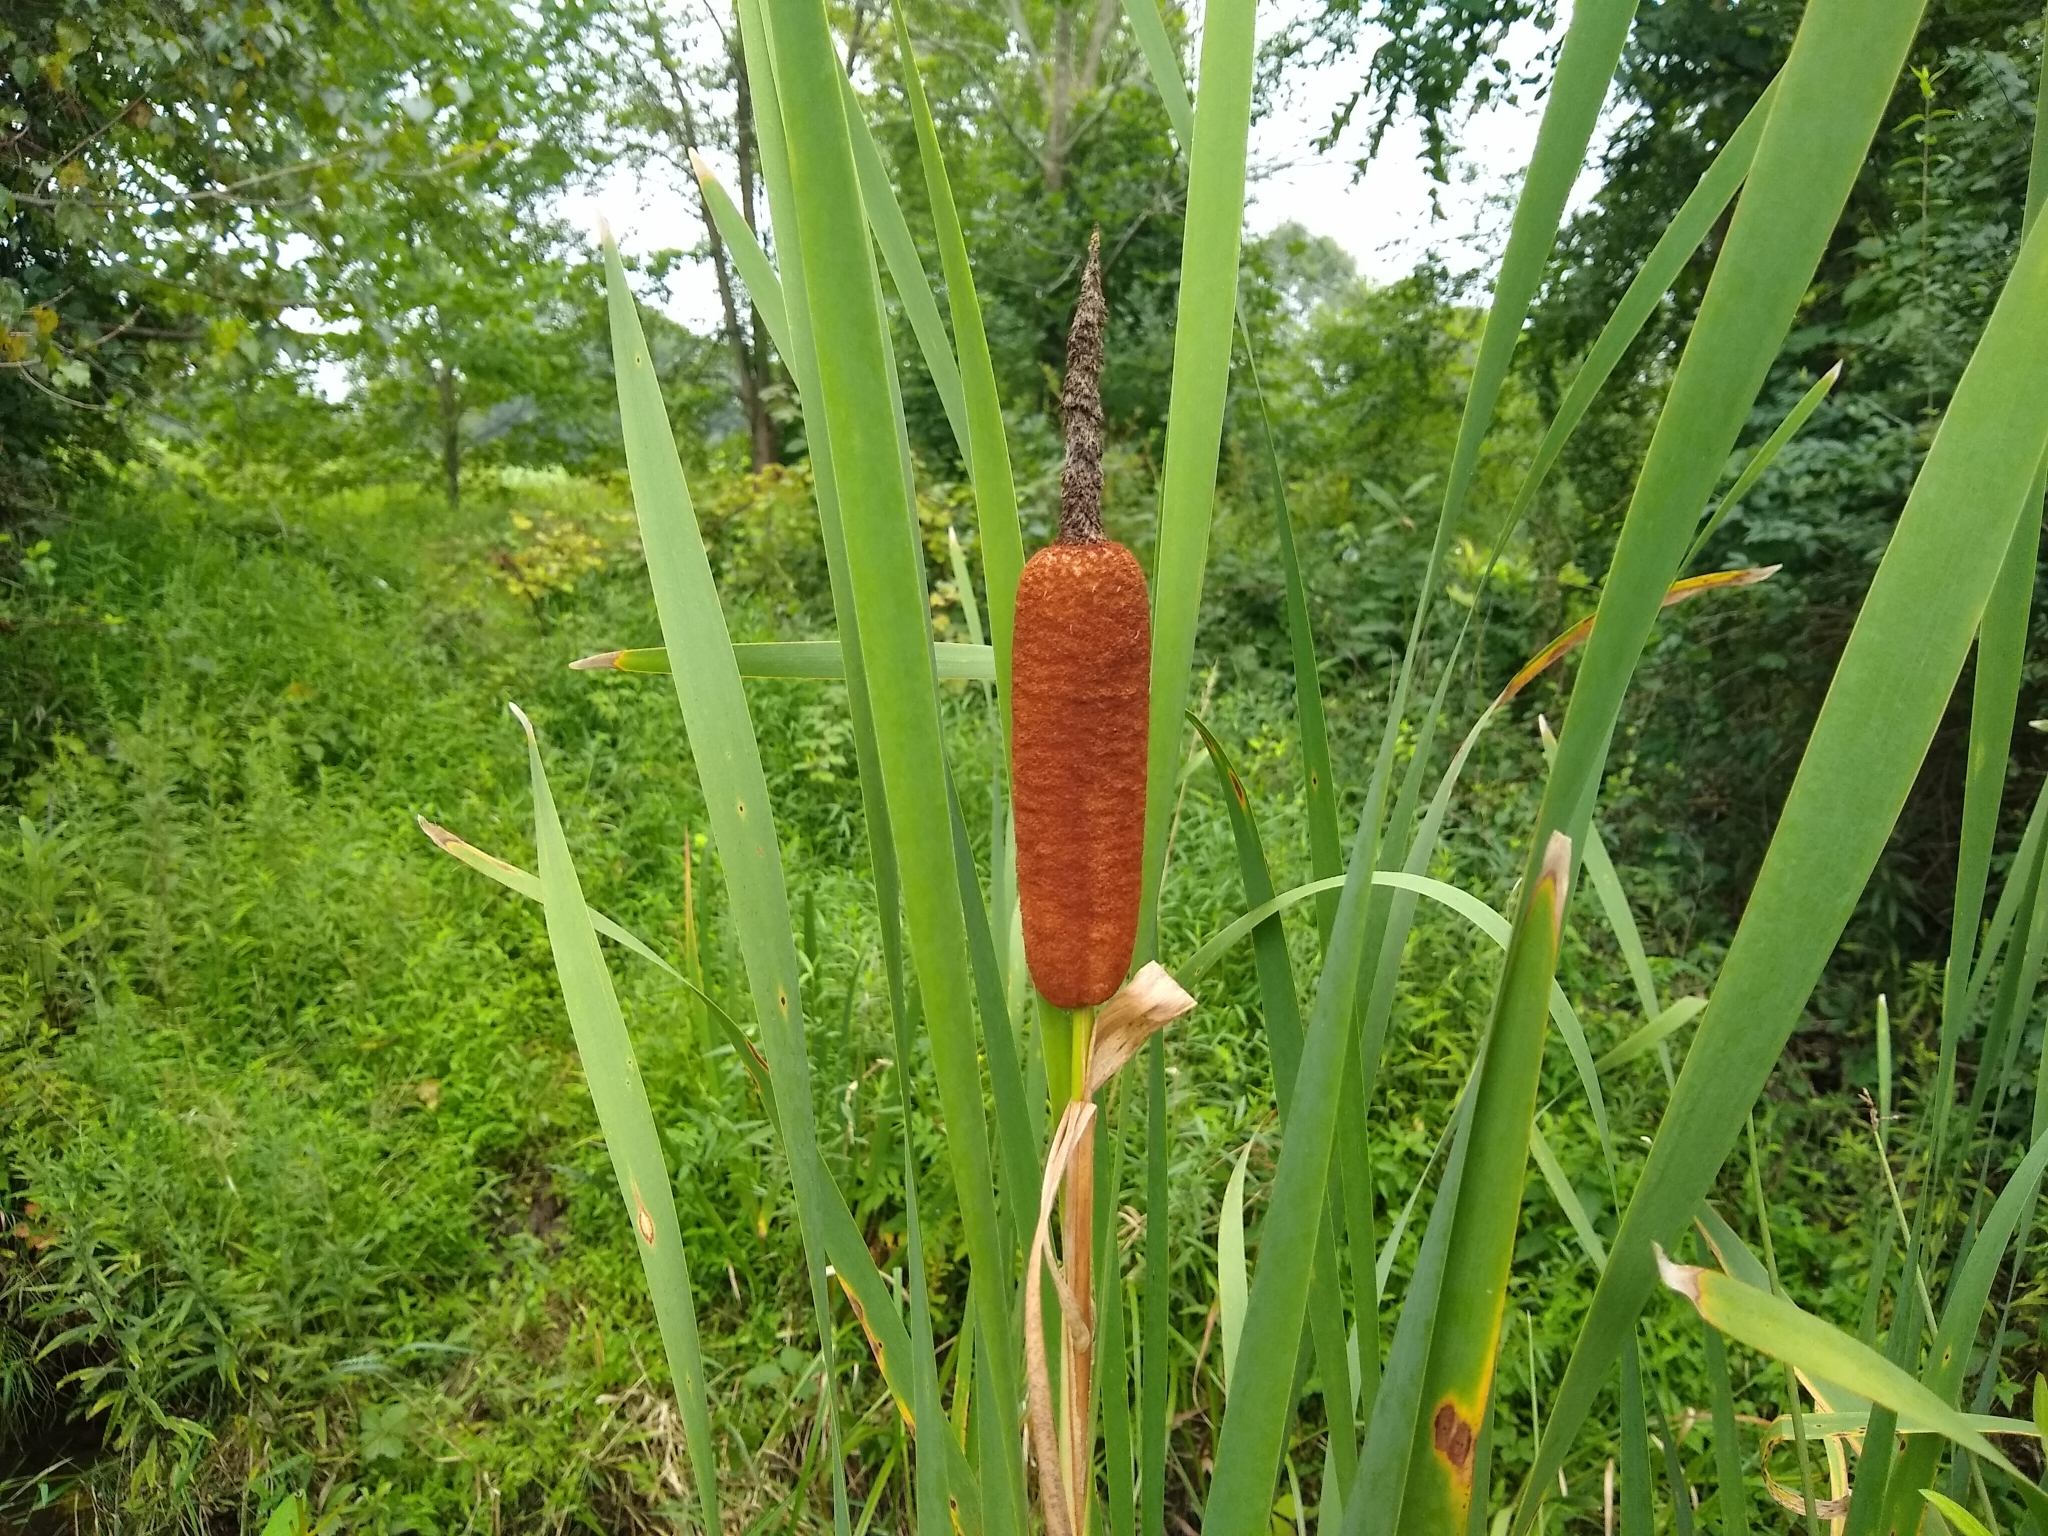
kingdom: Plantae
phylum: Tracheophyta
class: Liliopsida
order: Poales
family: Typhaceae
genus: Typha
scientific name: Typha latifolia
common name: Broadleaf cattail
